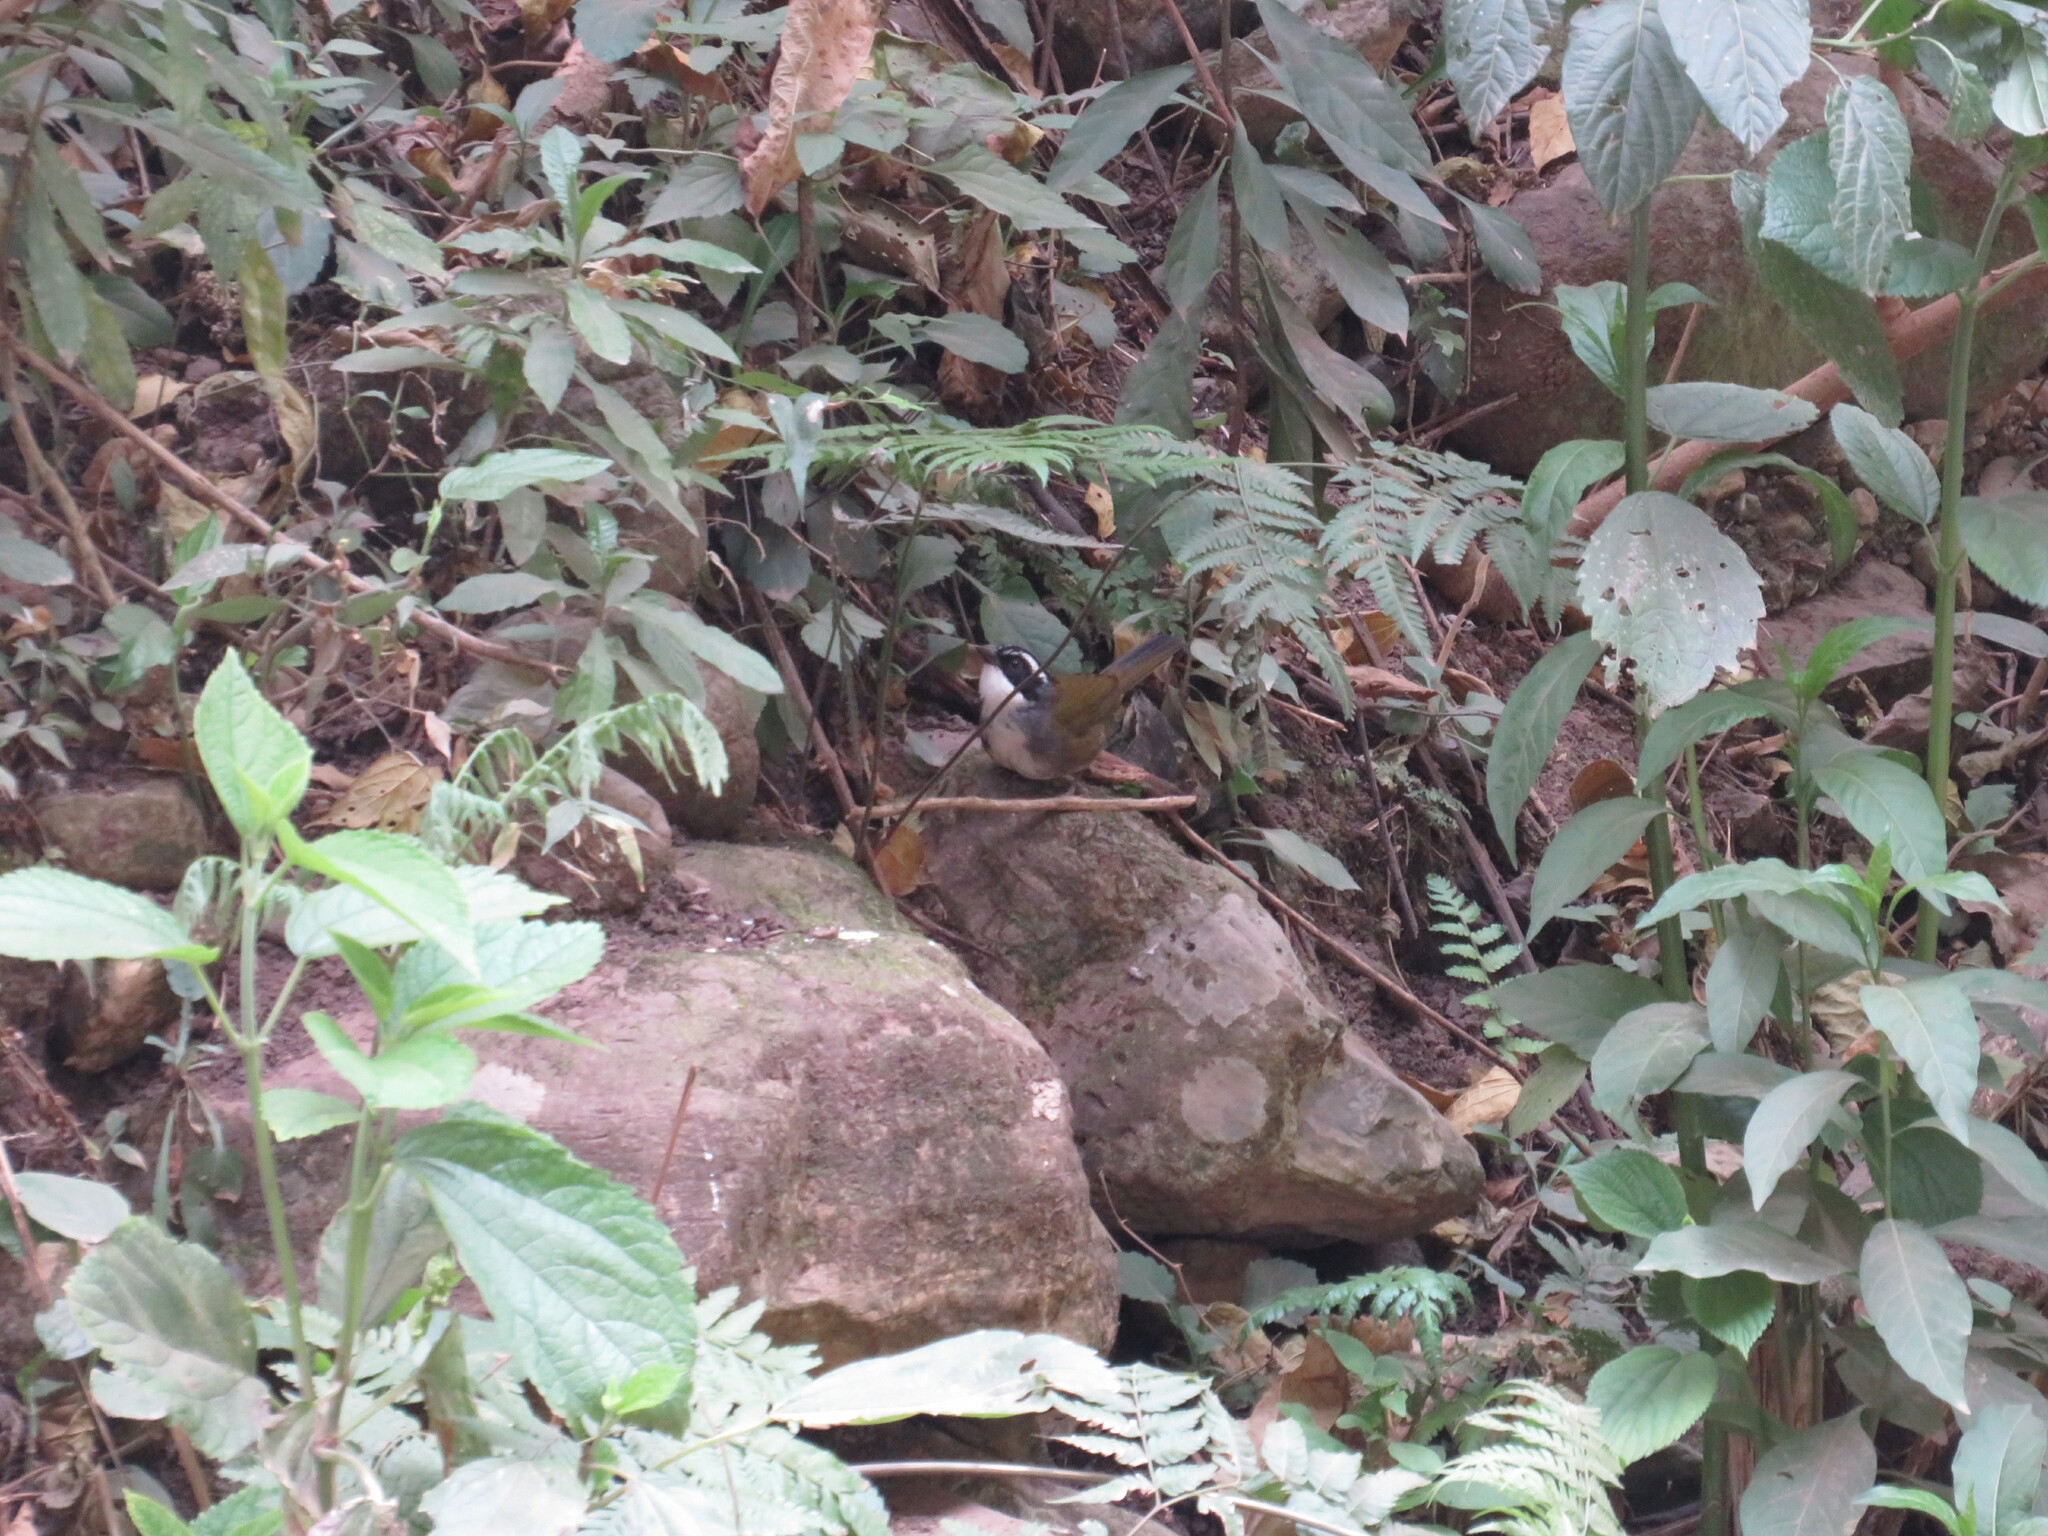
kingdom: Animalia
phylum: Chordata
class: Aves
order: Passeriformes
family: Passerellidae
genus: Arremon
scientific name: Arremon torquatus
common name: White-browed brushfinch
